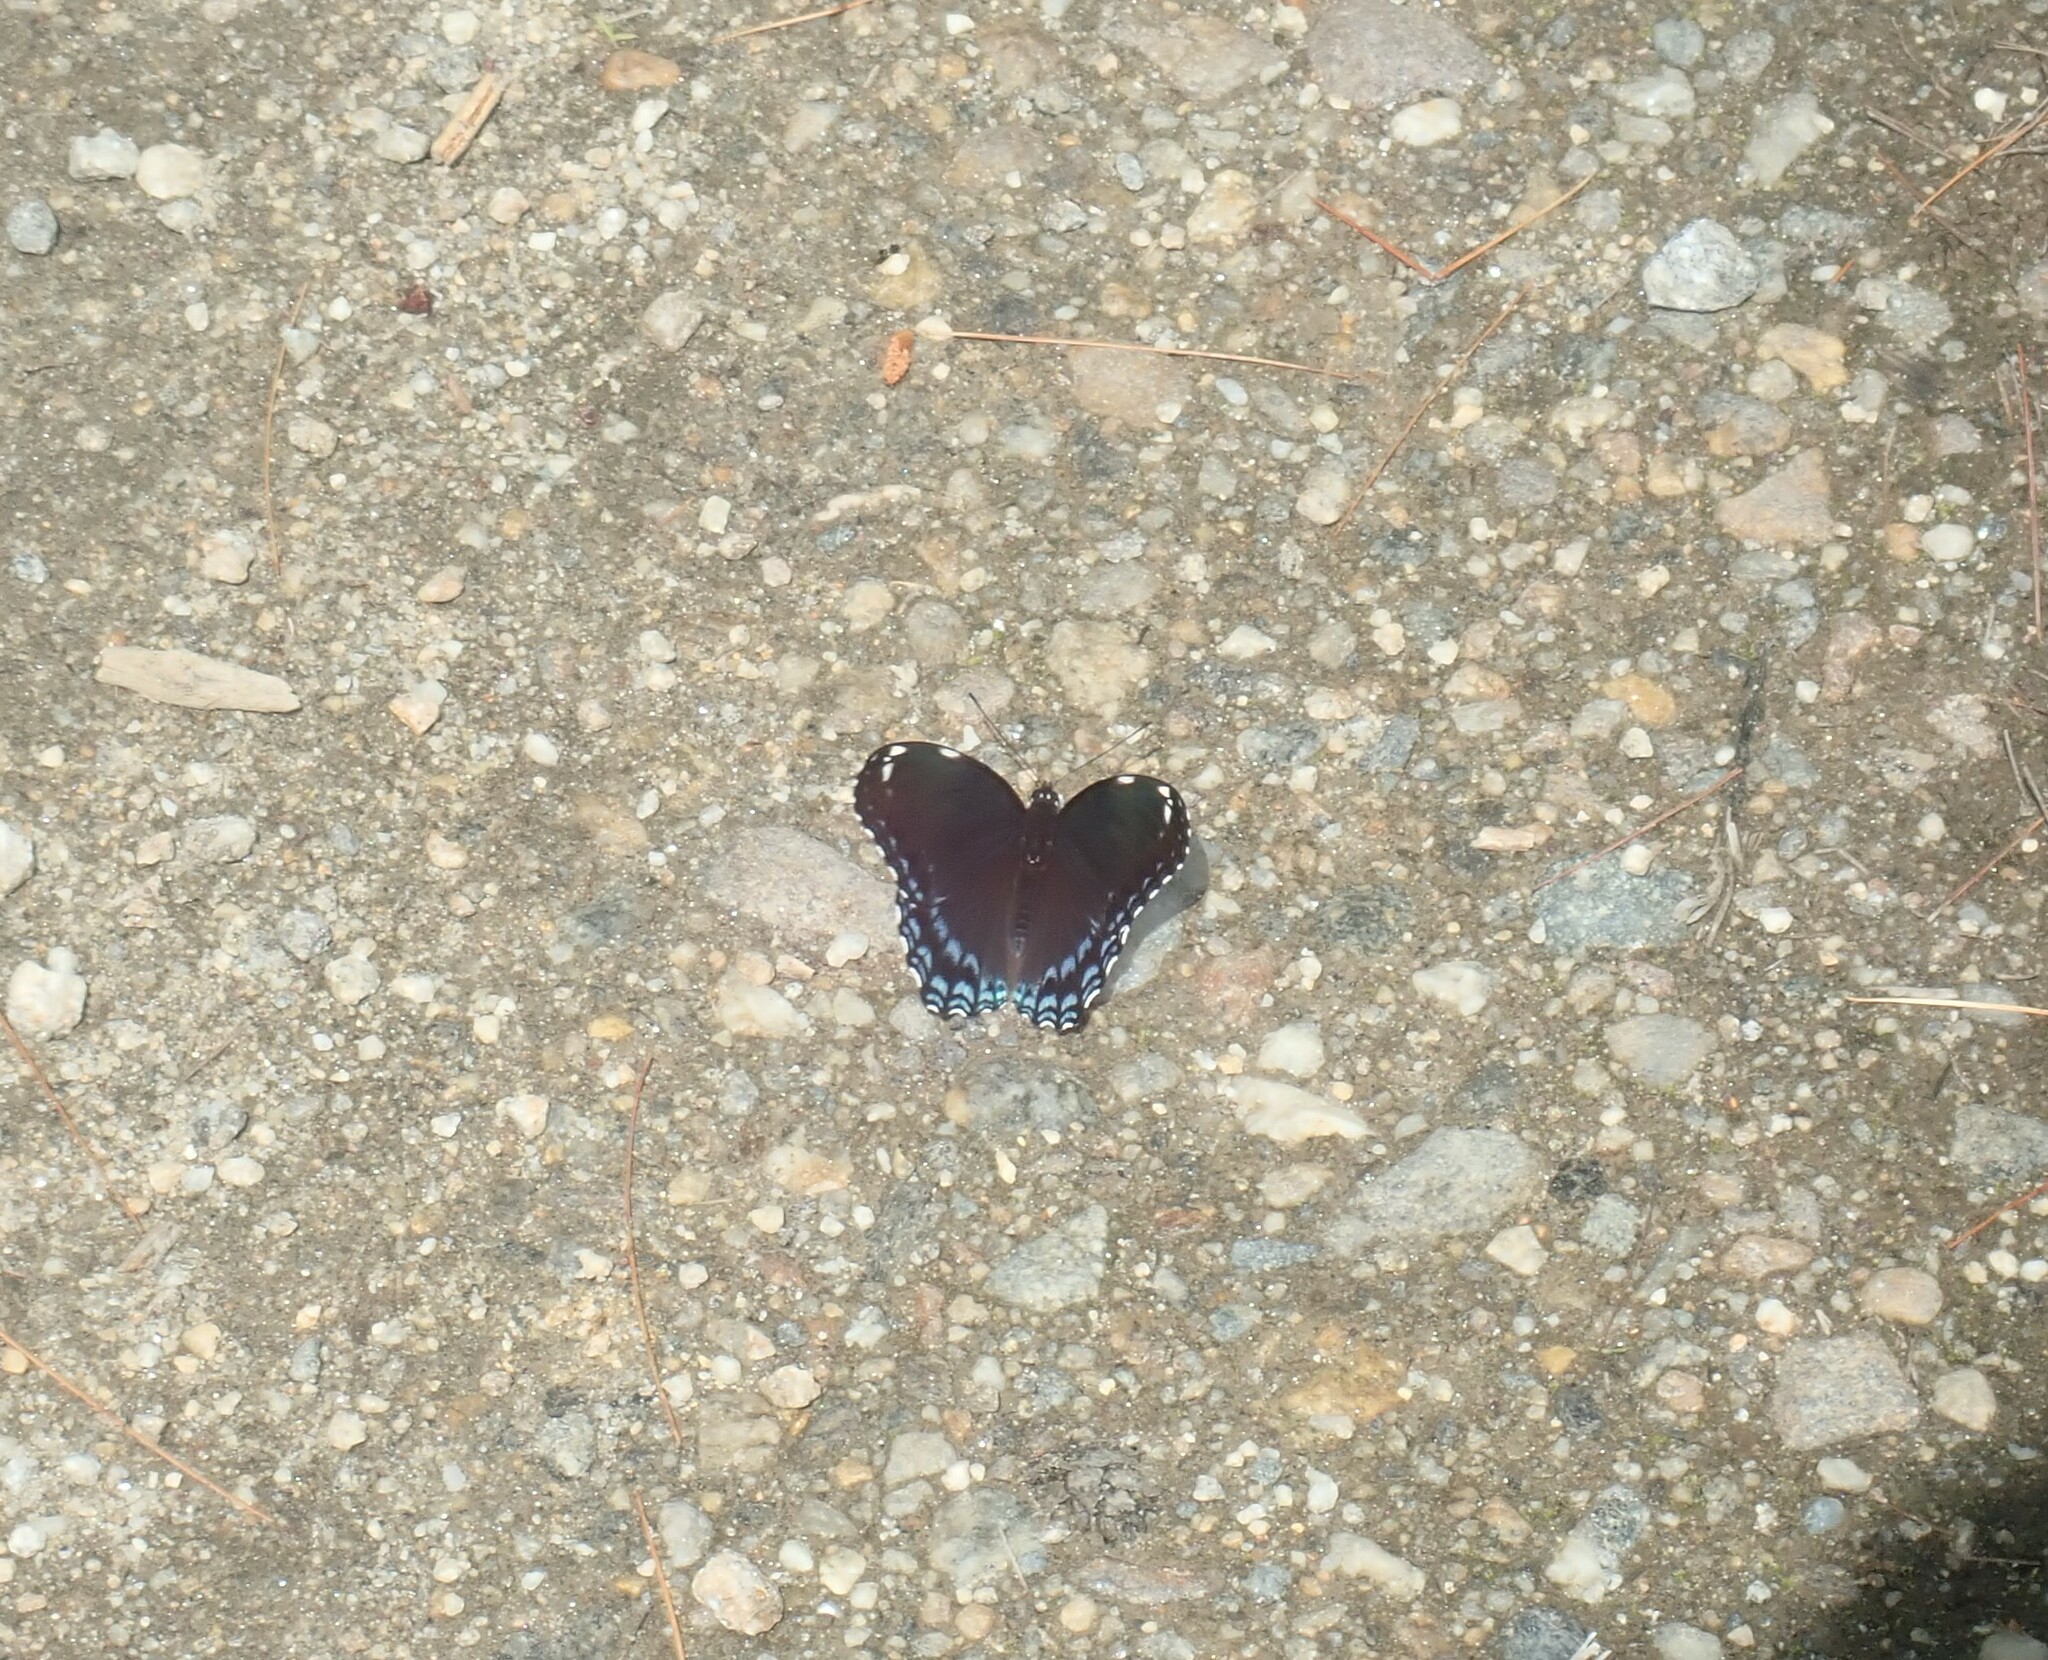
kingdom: Animalia
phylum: Arthropoda
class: Insecta
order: Lepidoptera
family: Nymphalidae
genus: Limenitis
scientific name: Limenitis arthemis
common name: Red-spotted admiral
